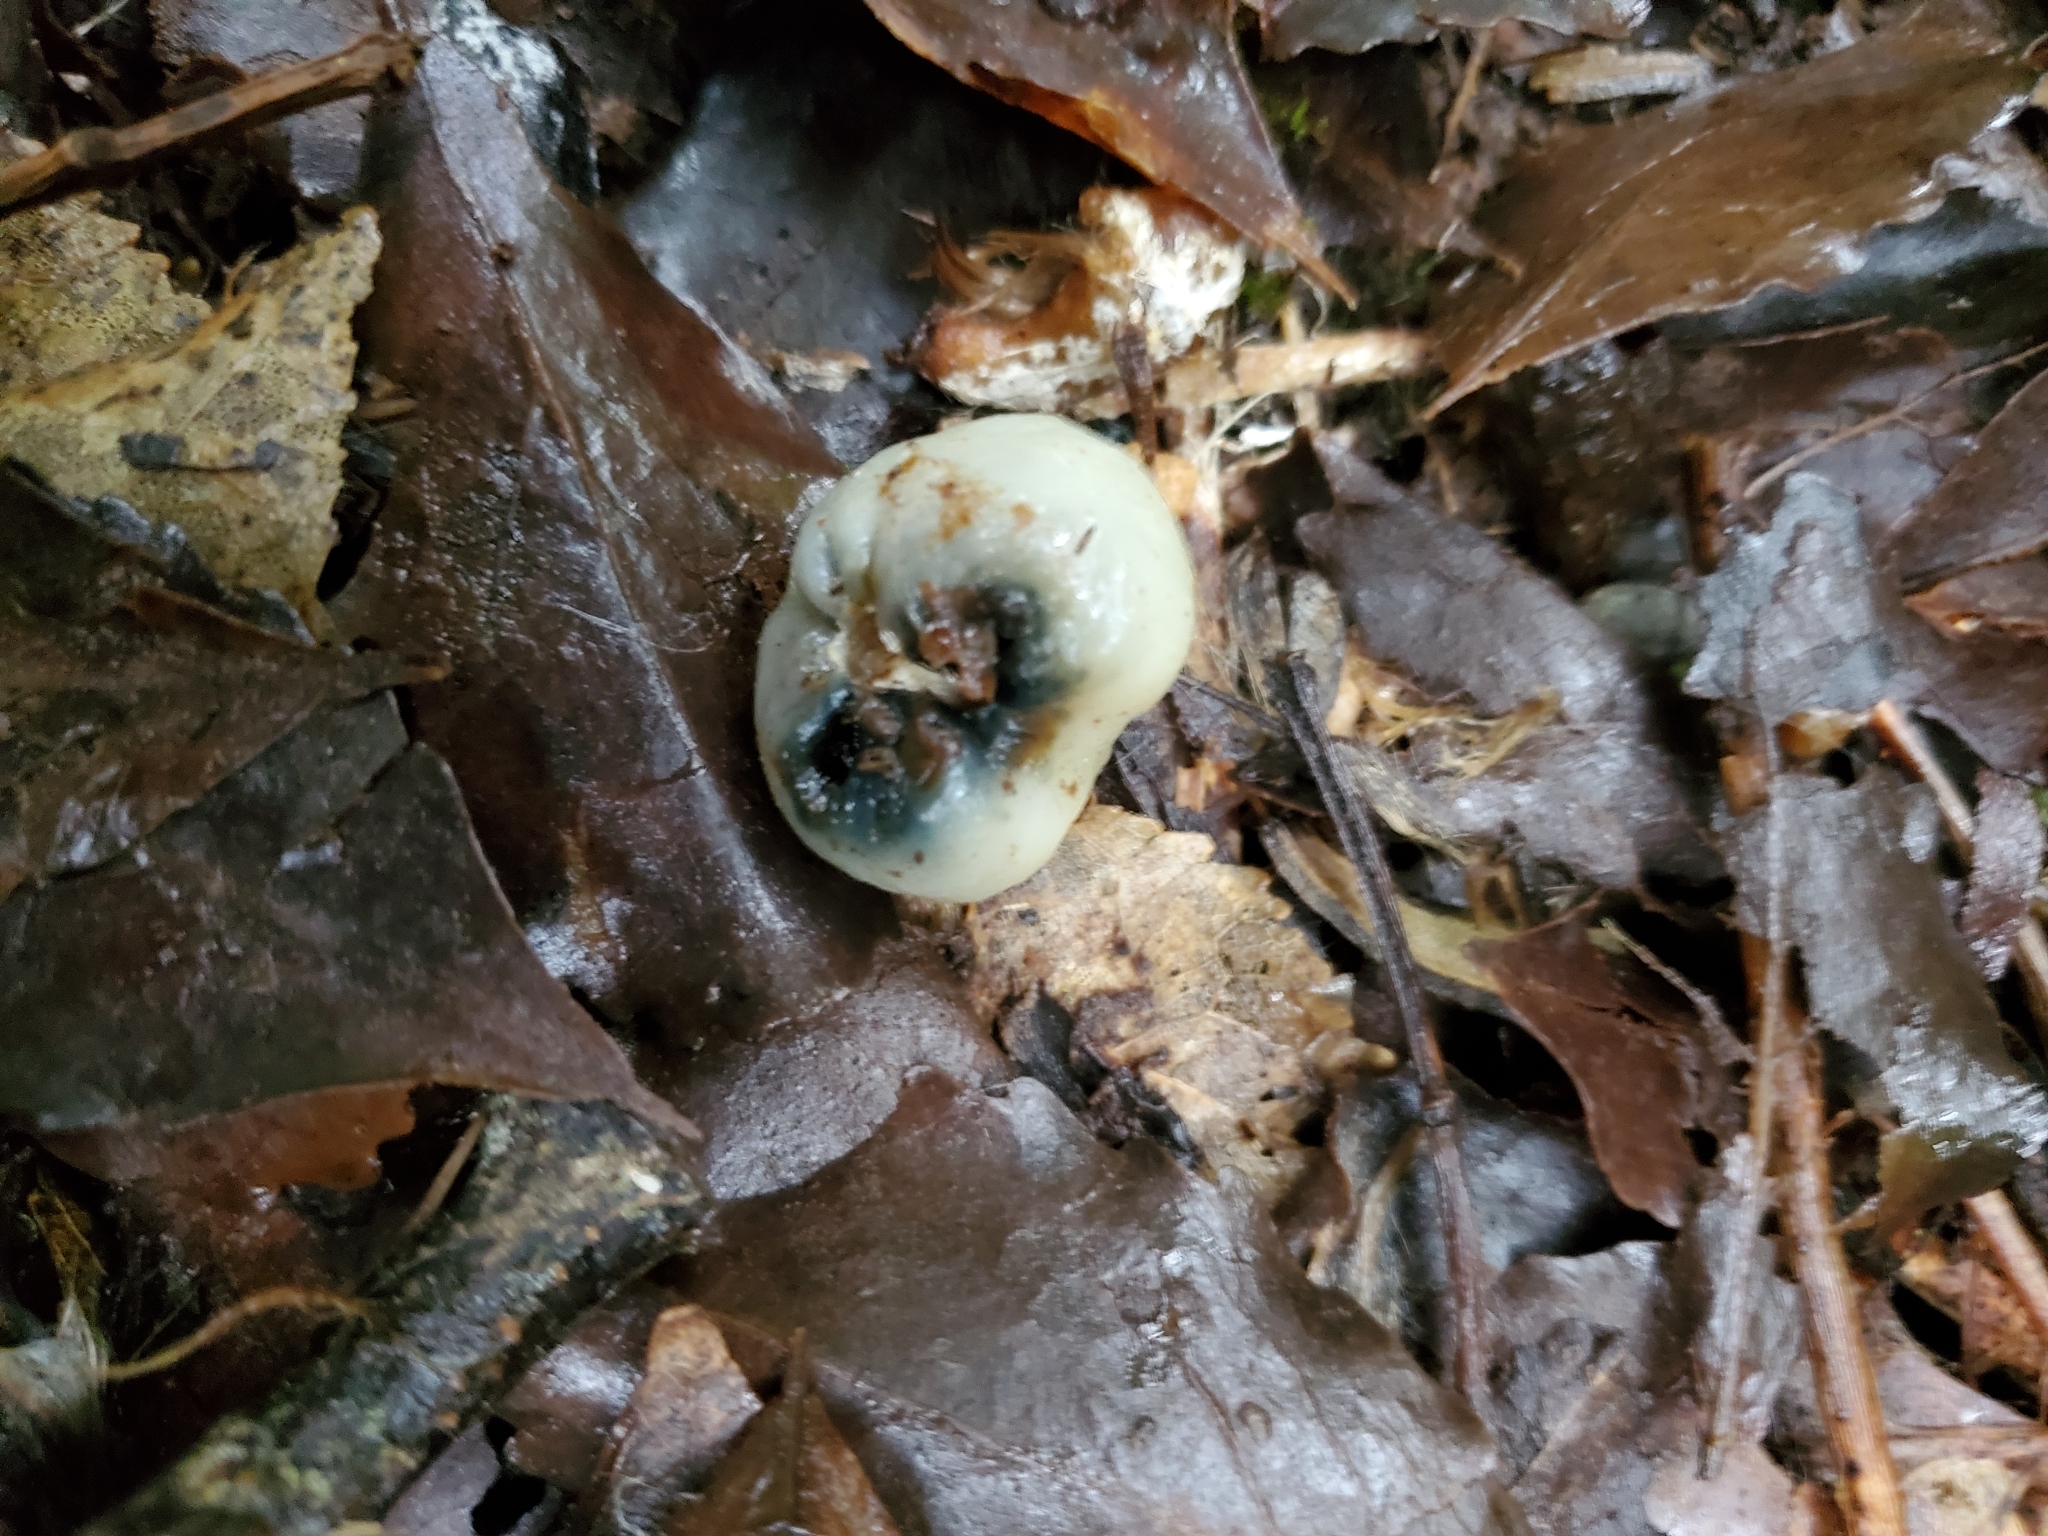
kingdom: Fungi
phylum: Basidiomycota
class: Agaricomycetes
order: Agaricales
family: Hymenogastraceae
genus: Psilocybe
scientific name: Psilocybe weraroa
